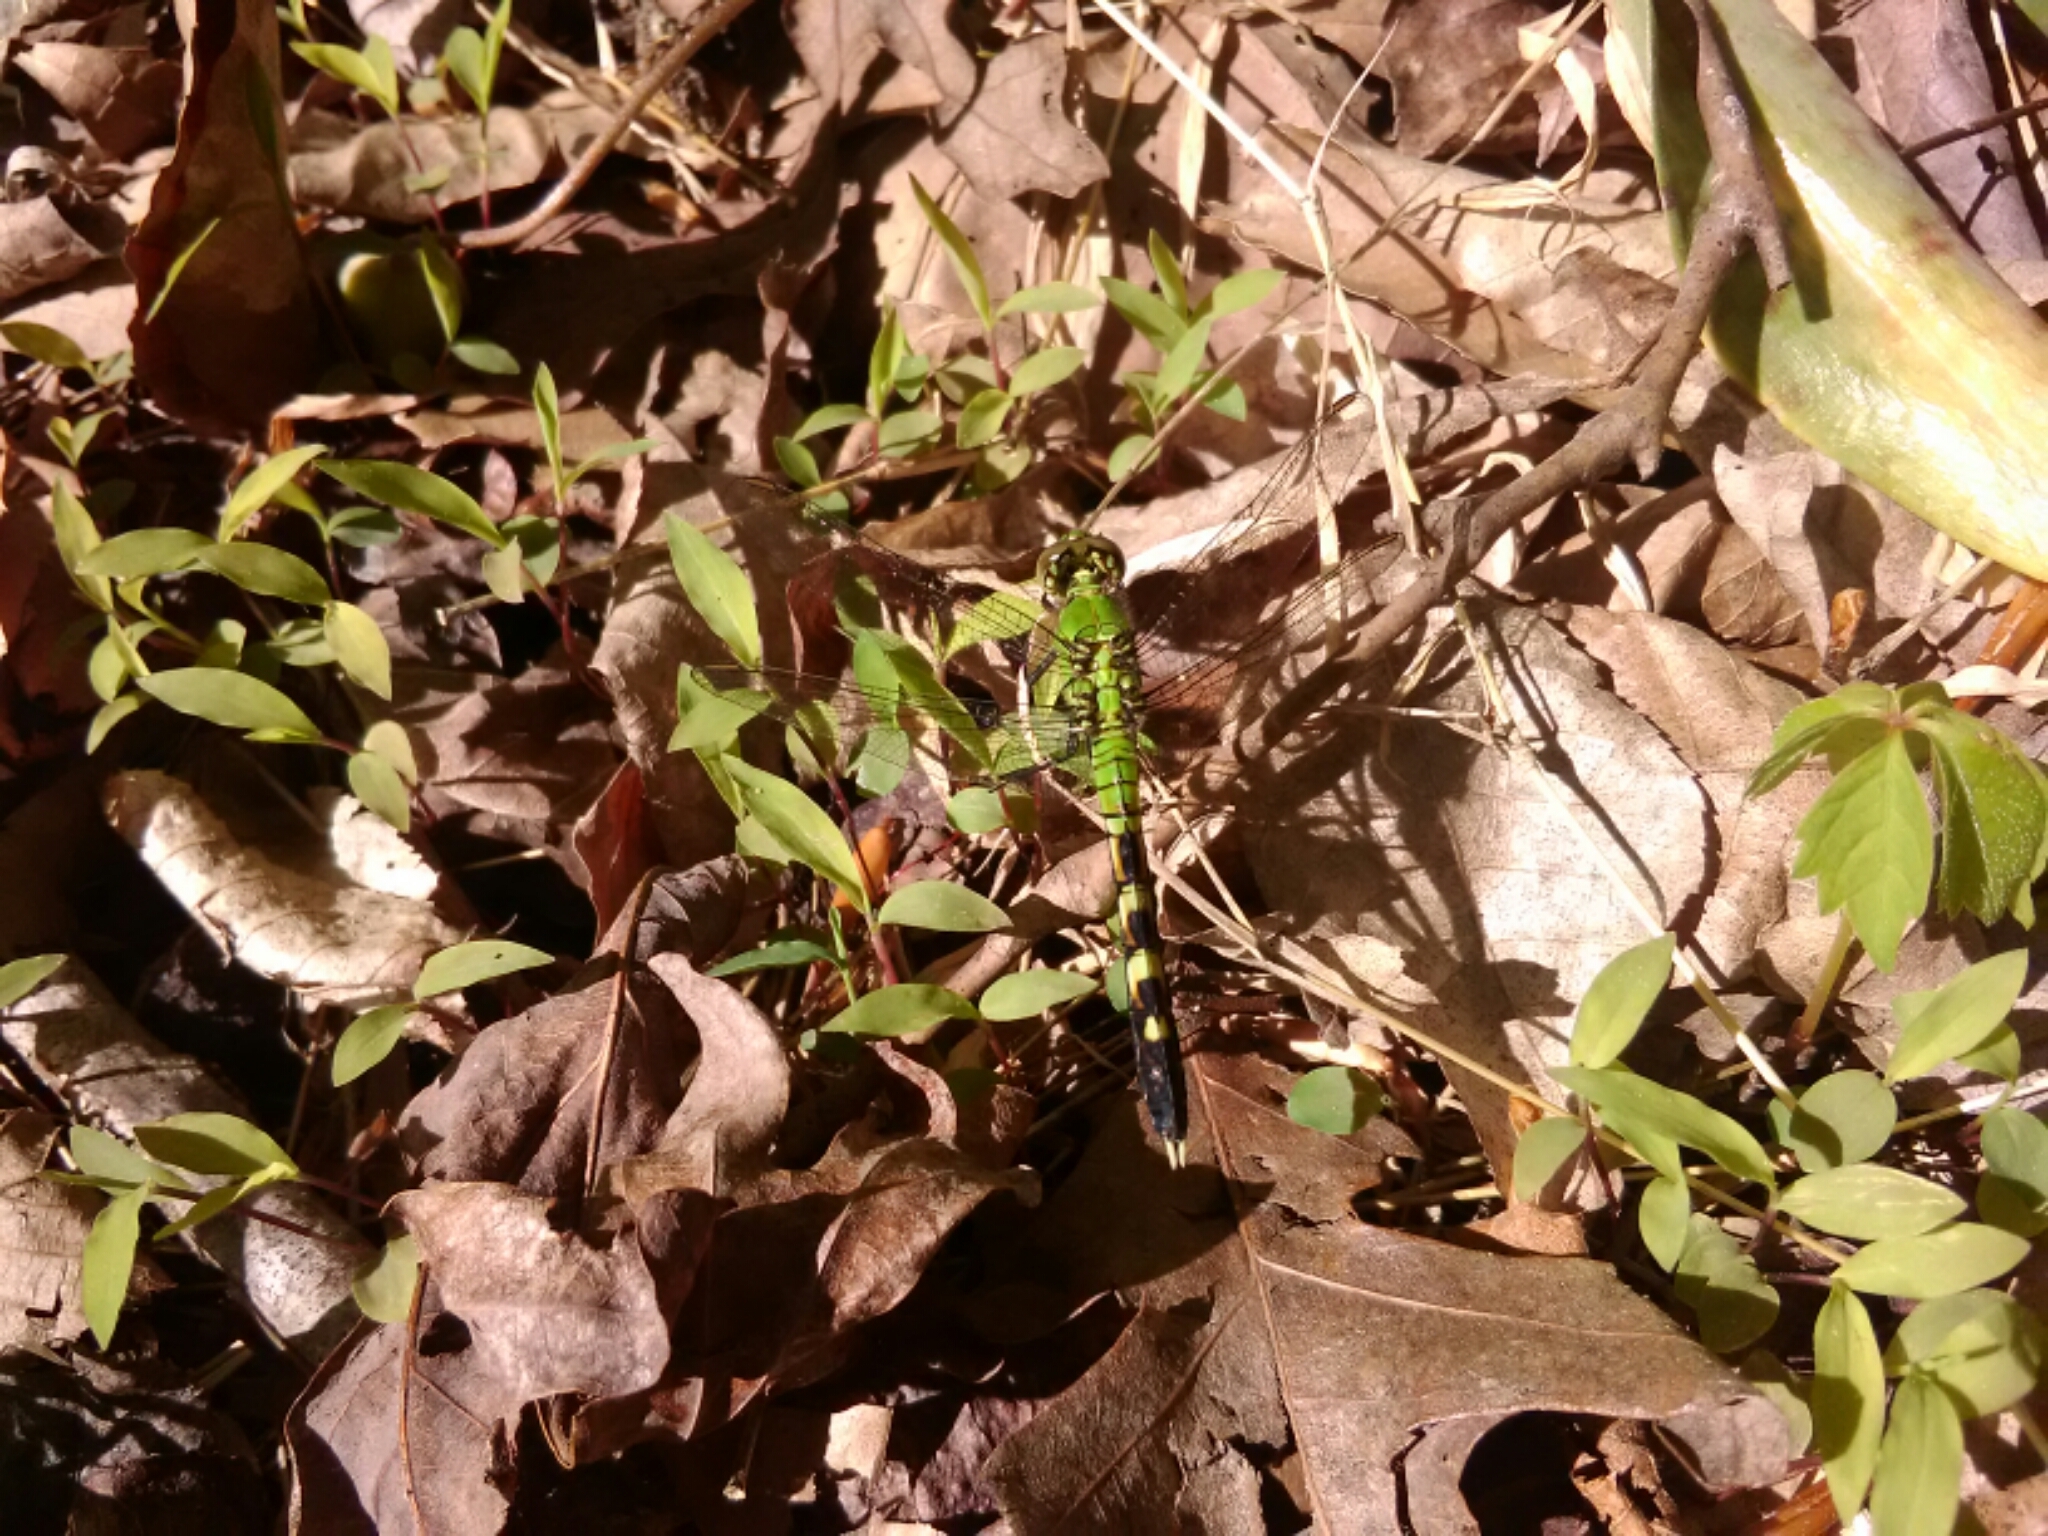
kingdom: Animalia
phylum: Arthropoda
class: Insecta
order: Odonata
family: Libellulidae
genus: Erythemis
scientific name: Erythemis simplicicollis
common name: Eastern pondhawk
